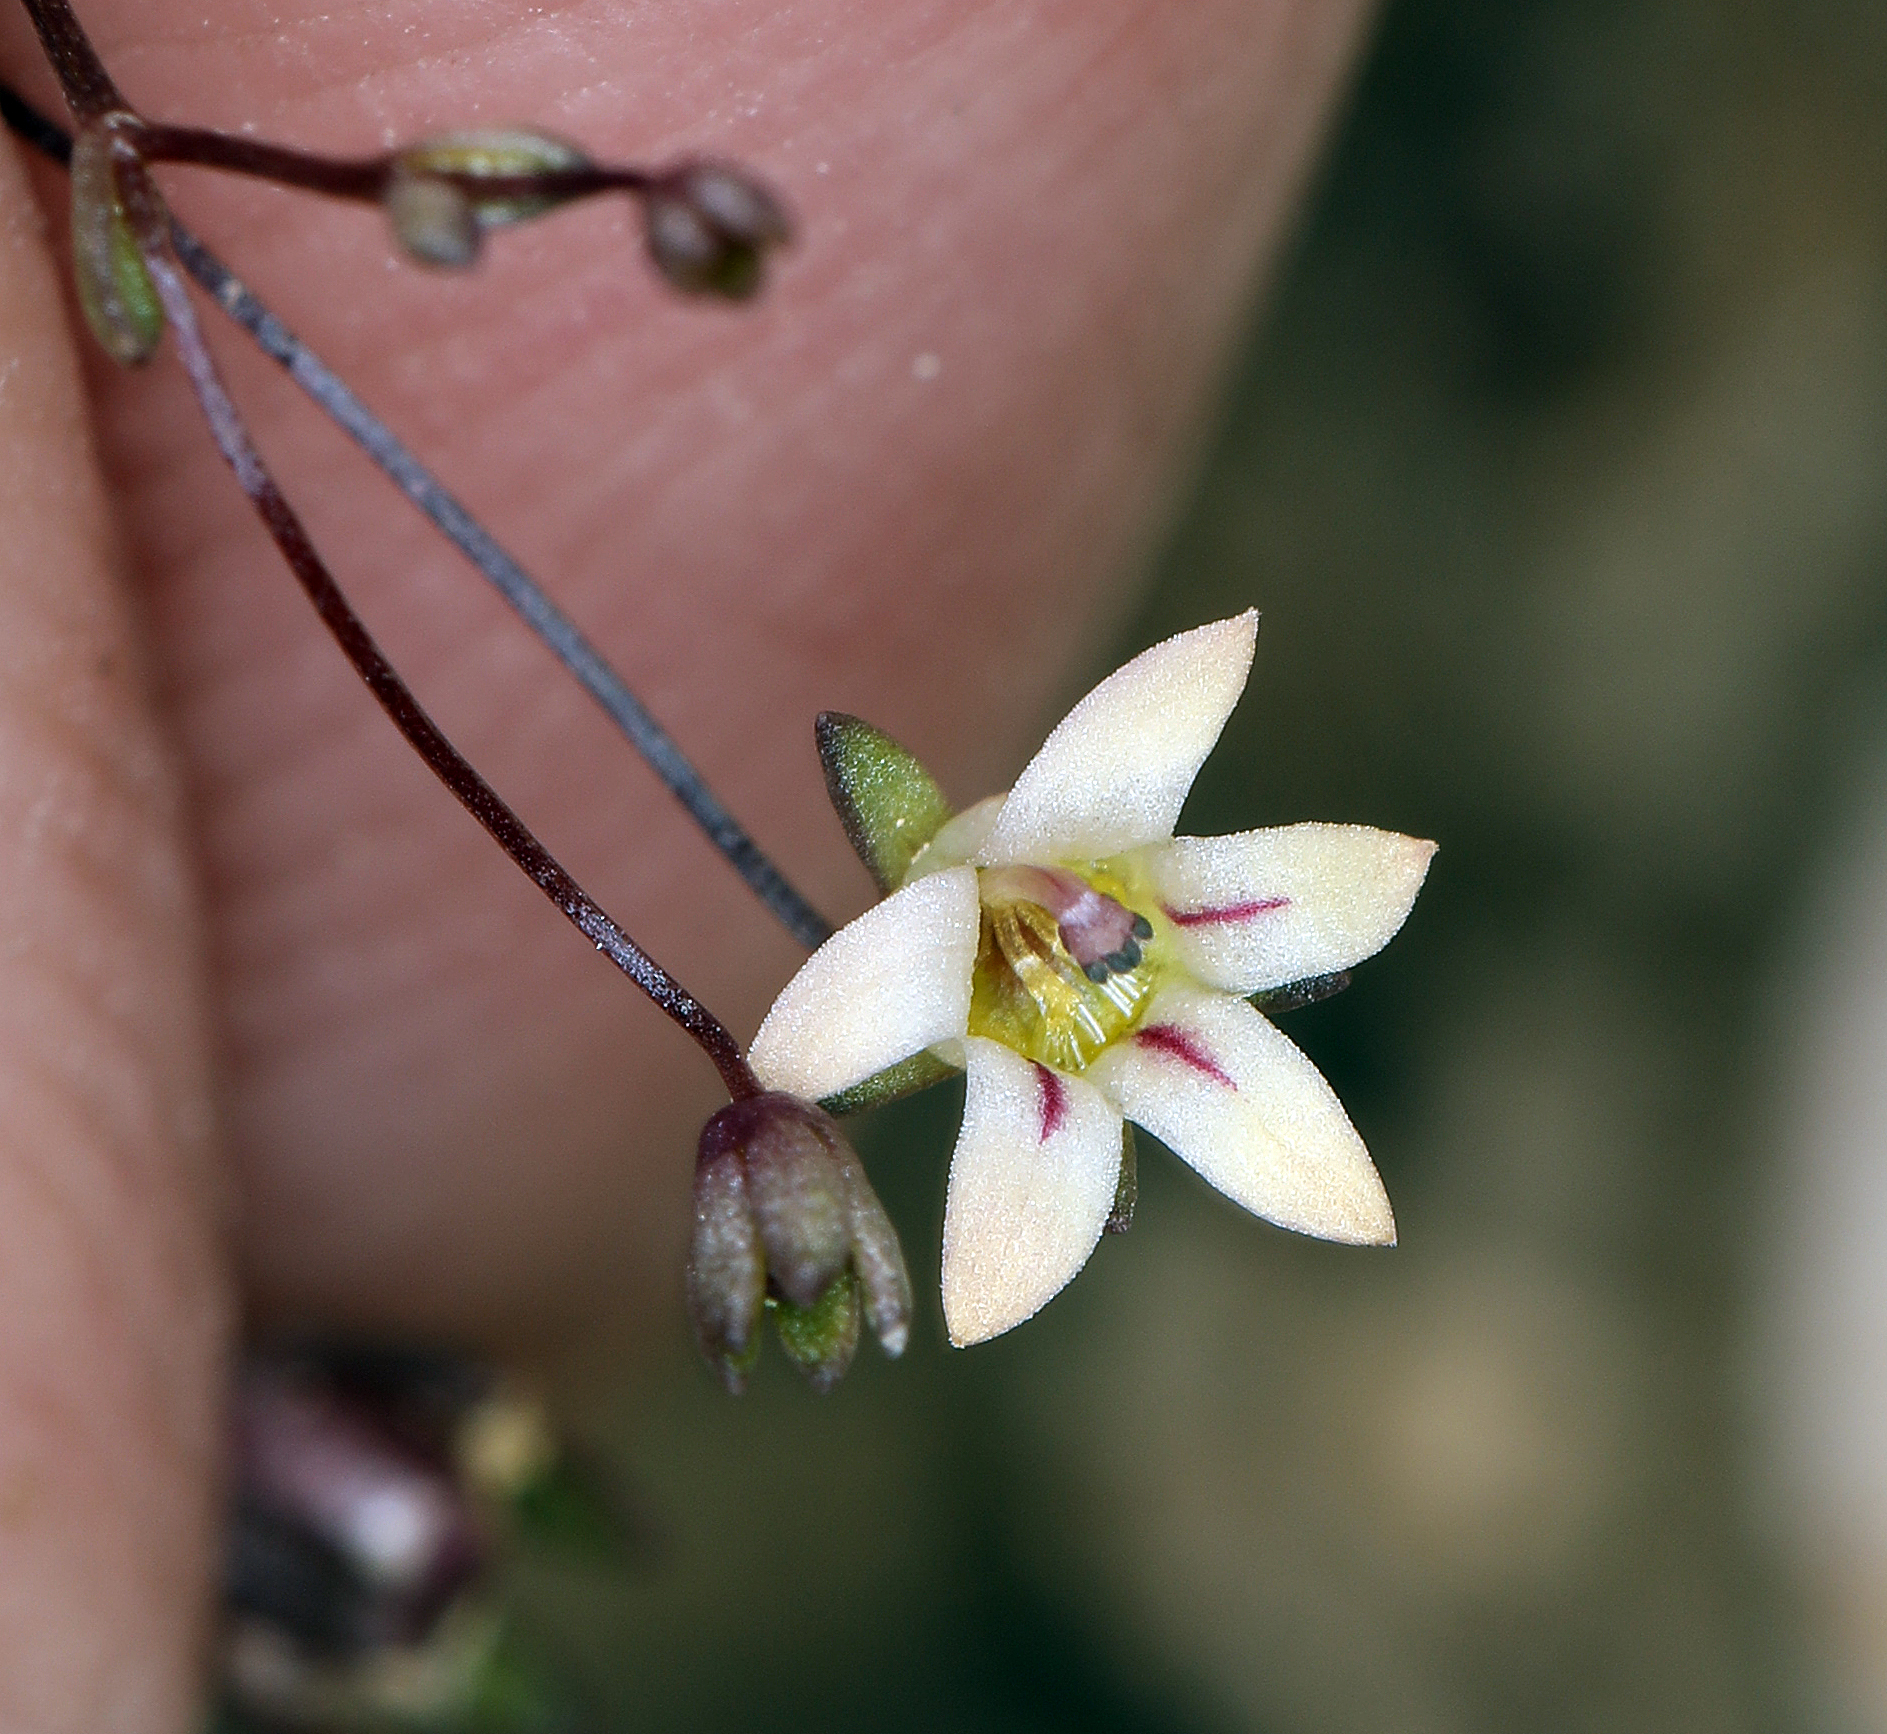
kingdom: Plantae
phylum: Tracheophyta
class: Magnoliopsida
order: Asterales
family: Campanulaceae
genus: Nemacladus
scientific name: Nemacladus inyoensis
